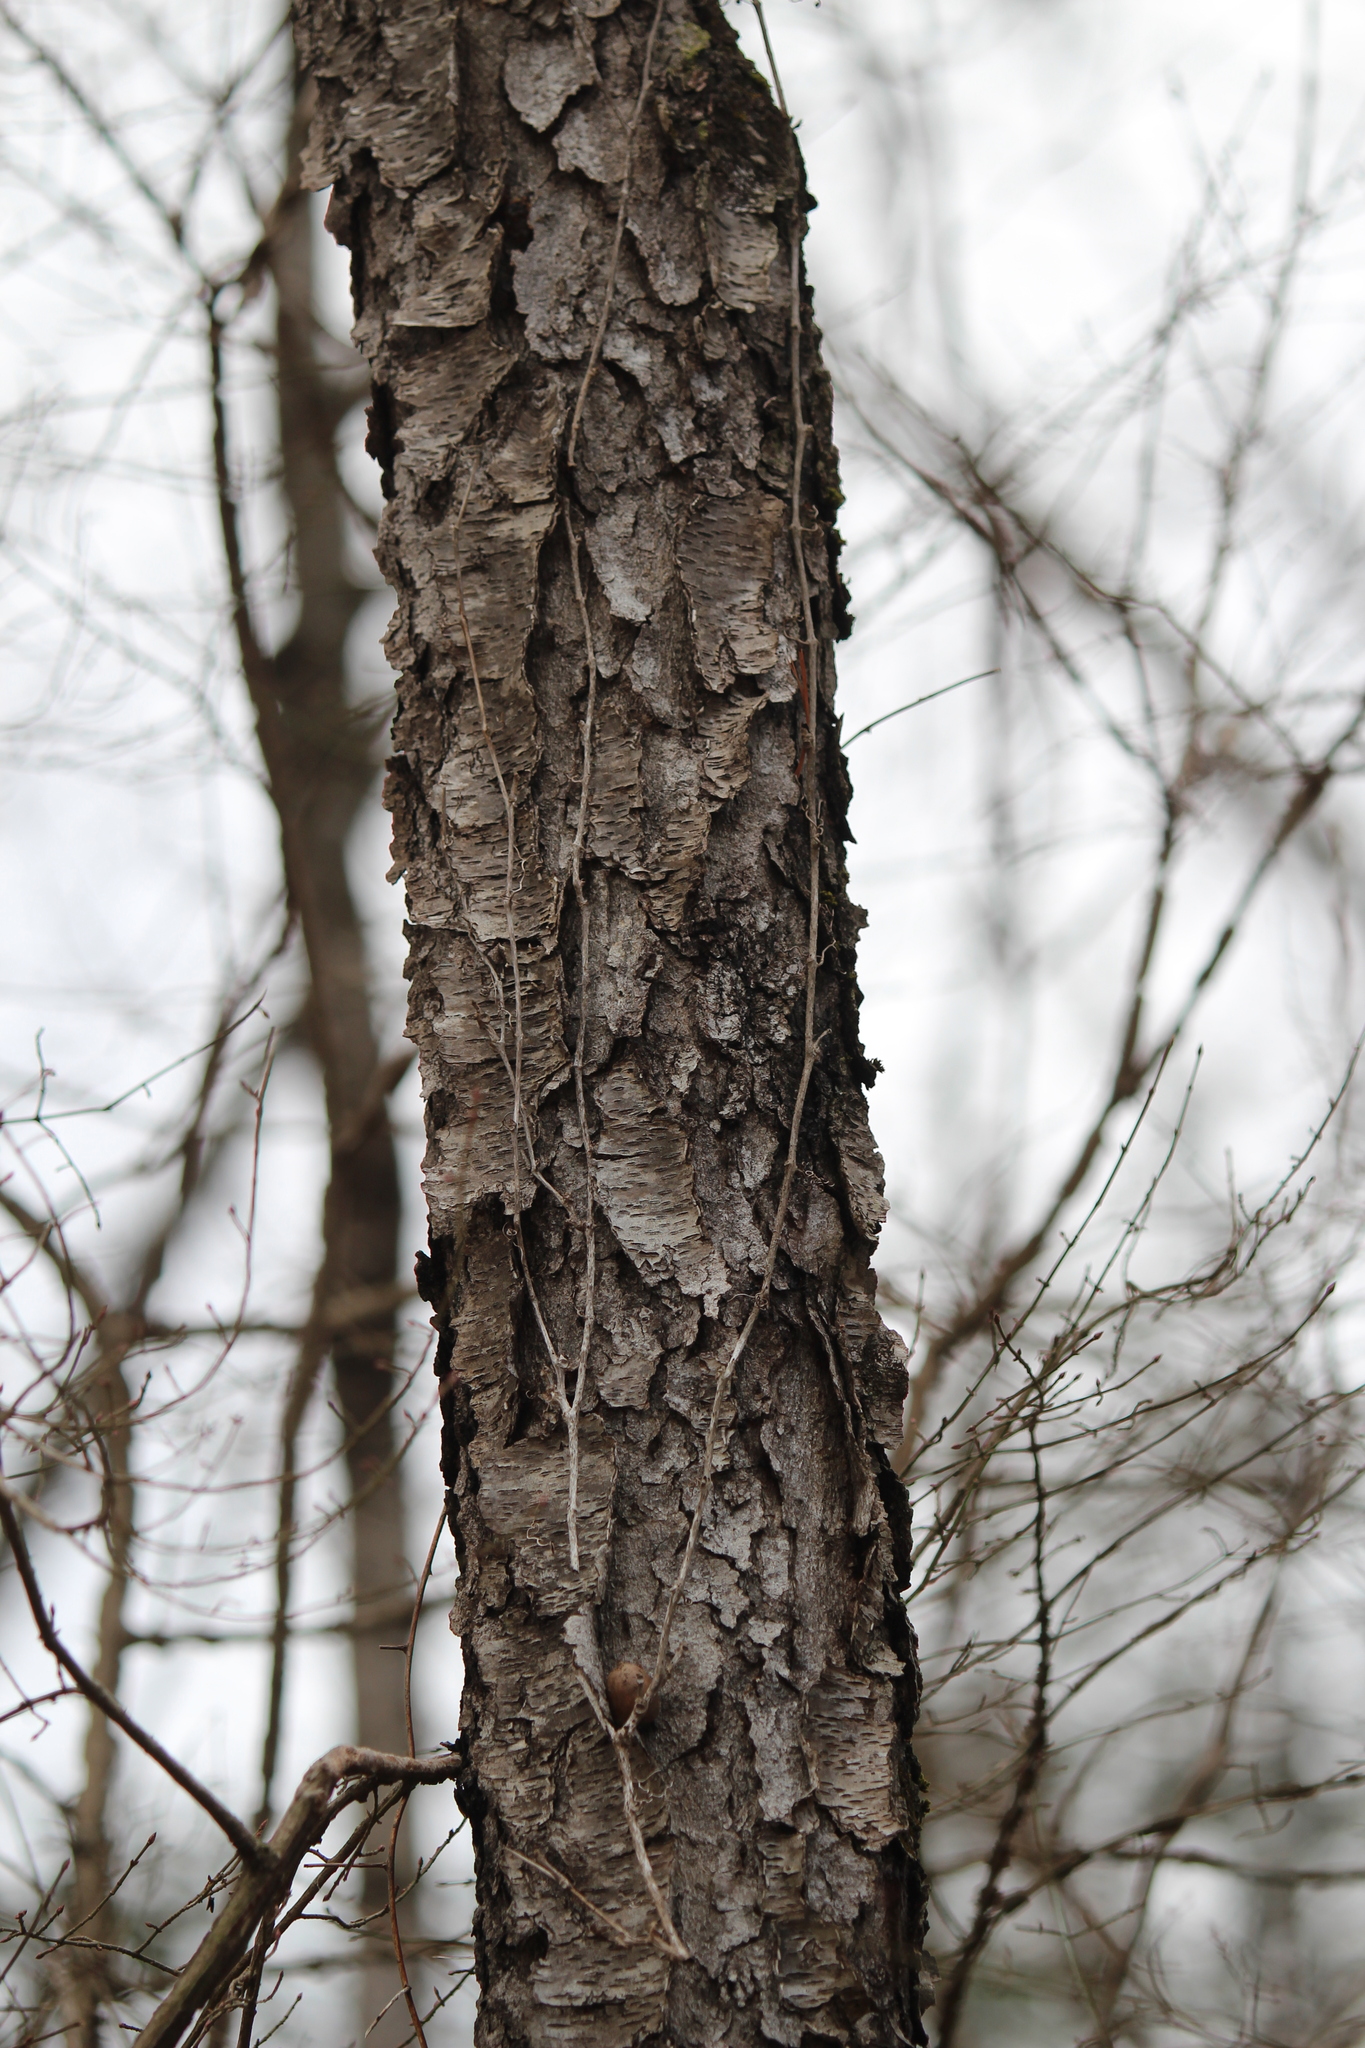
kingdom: Plantae
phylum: Tracheophyta
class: Magnoliopsida
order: Rosales
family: Rosaceae
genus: Prunus
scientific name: Prunus serotina
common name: Black cherry
